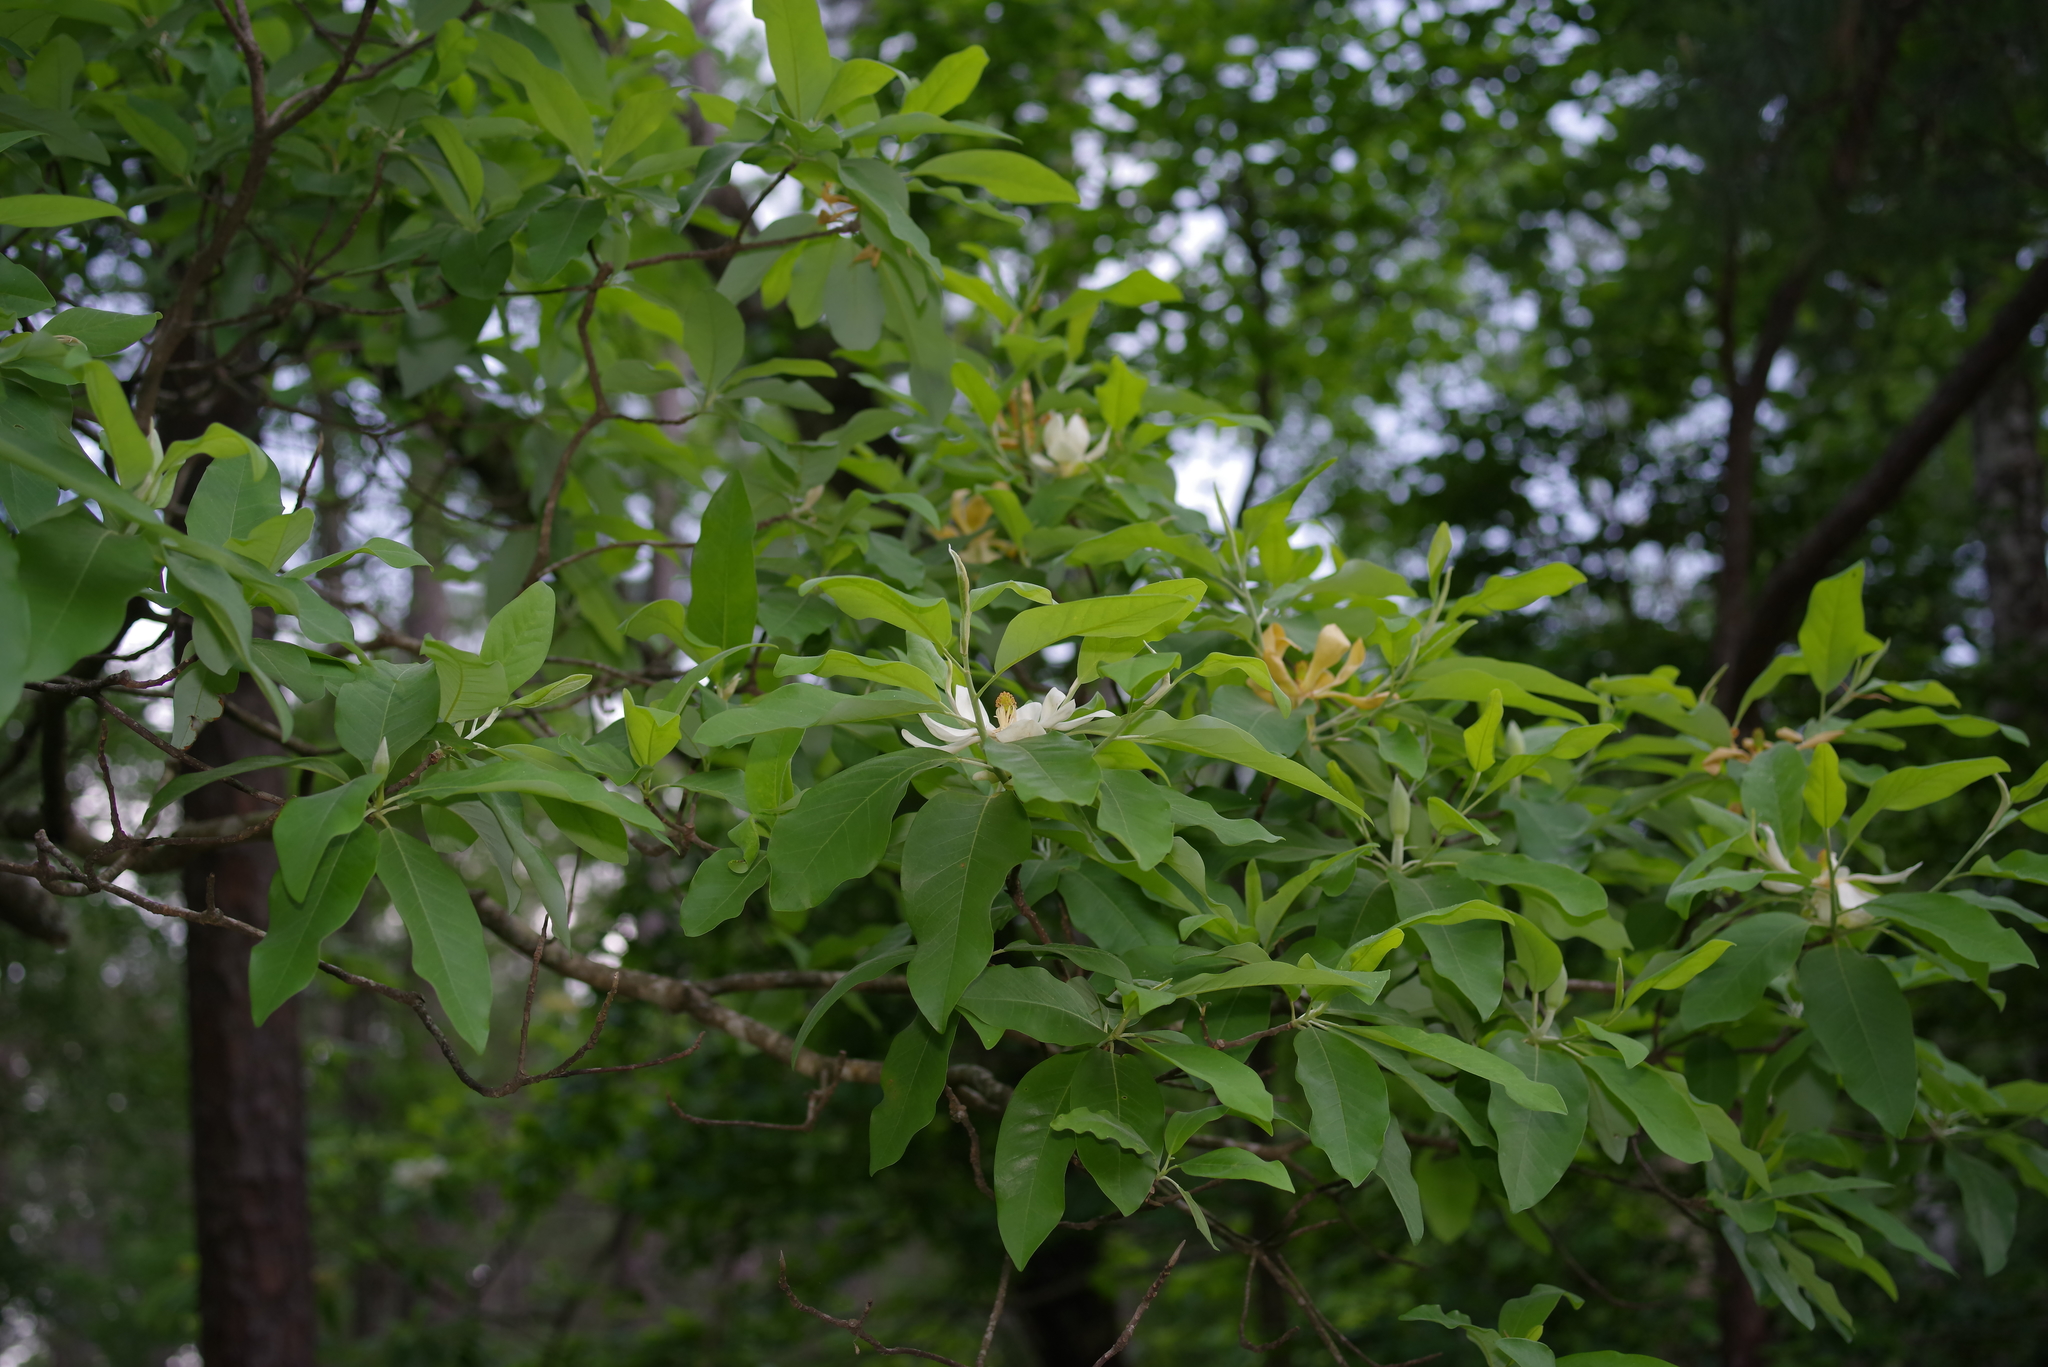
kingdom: Plantae
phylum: Tracheophyta
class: Magnoliopsida
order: Magnoliales
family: Magnoliaceae
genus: Magnolia
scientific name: Magnolia virginiana
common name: Swamp bay
